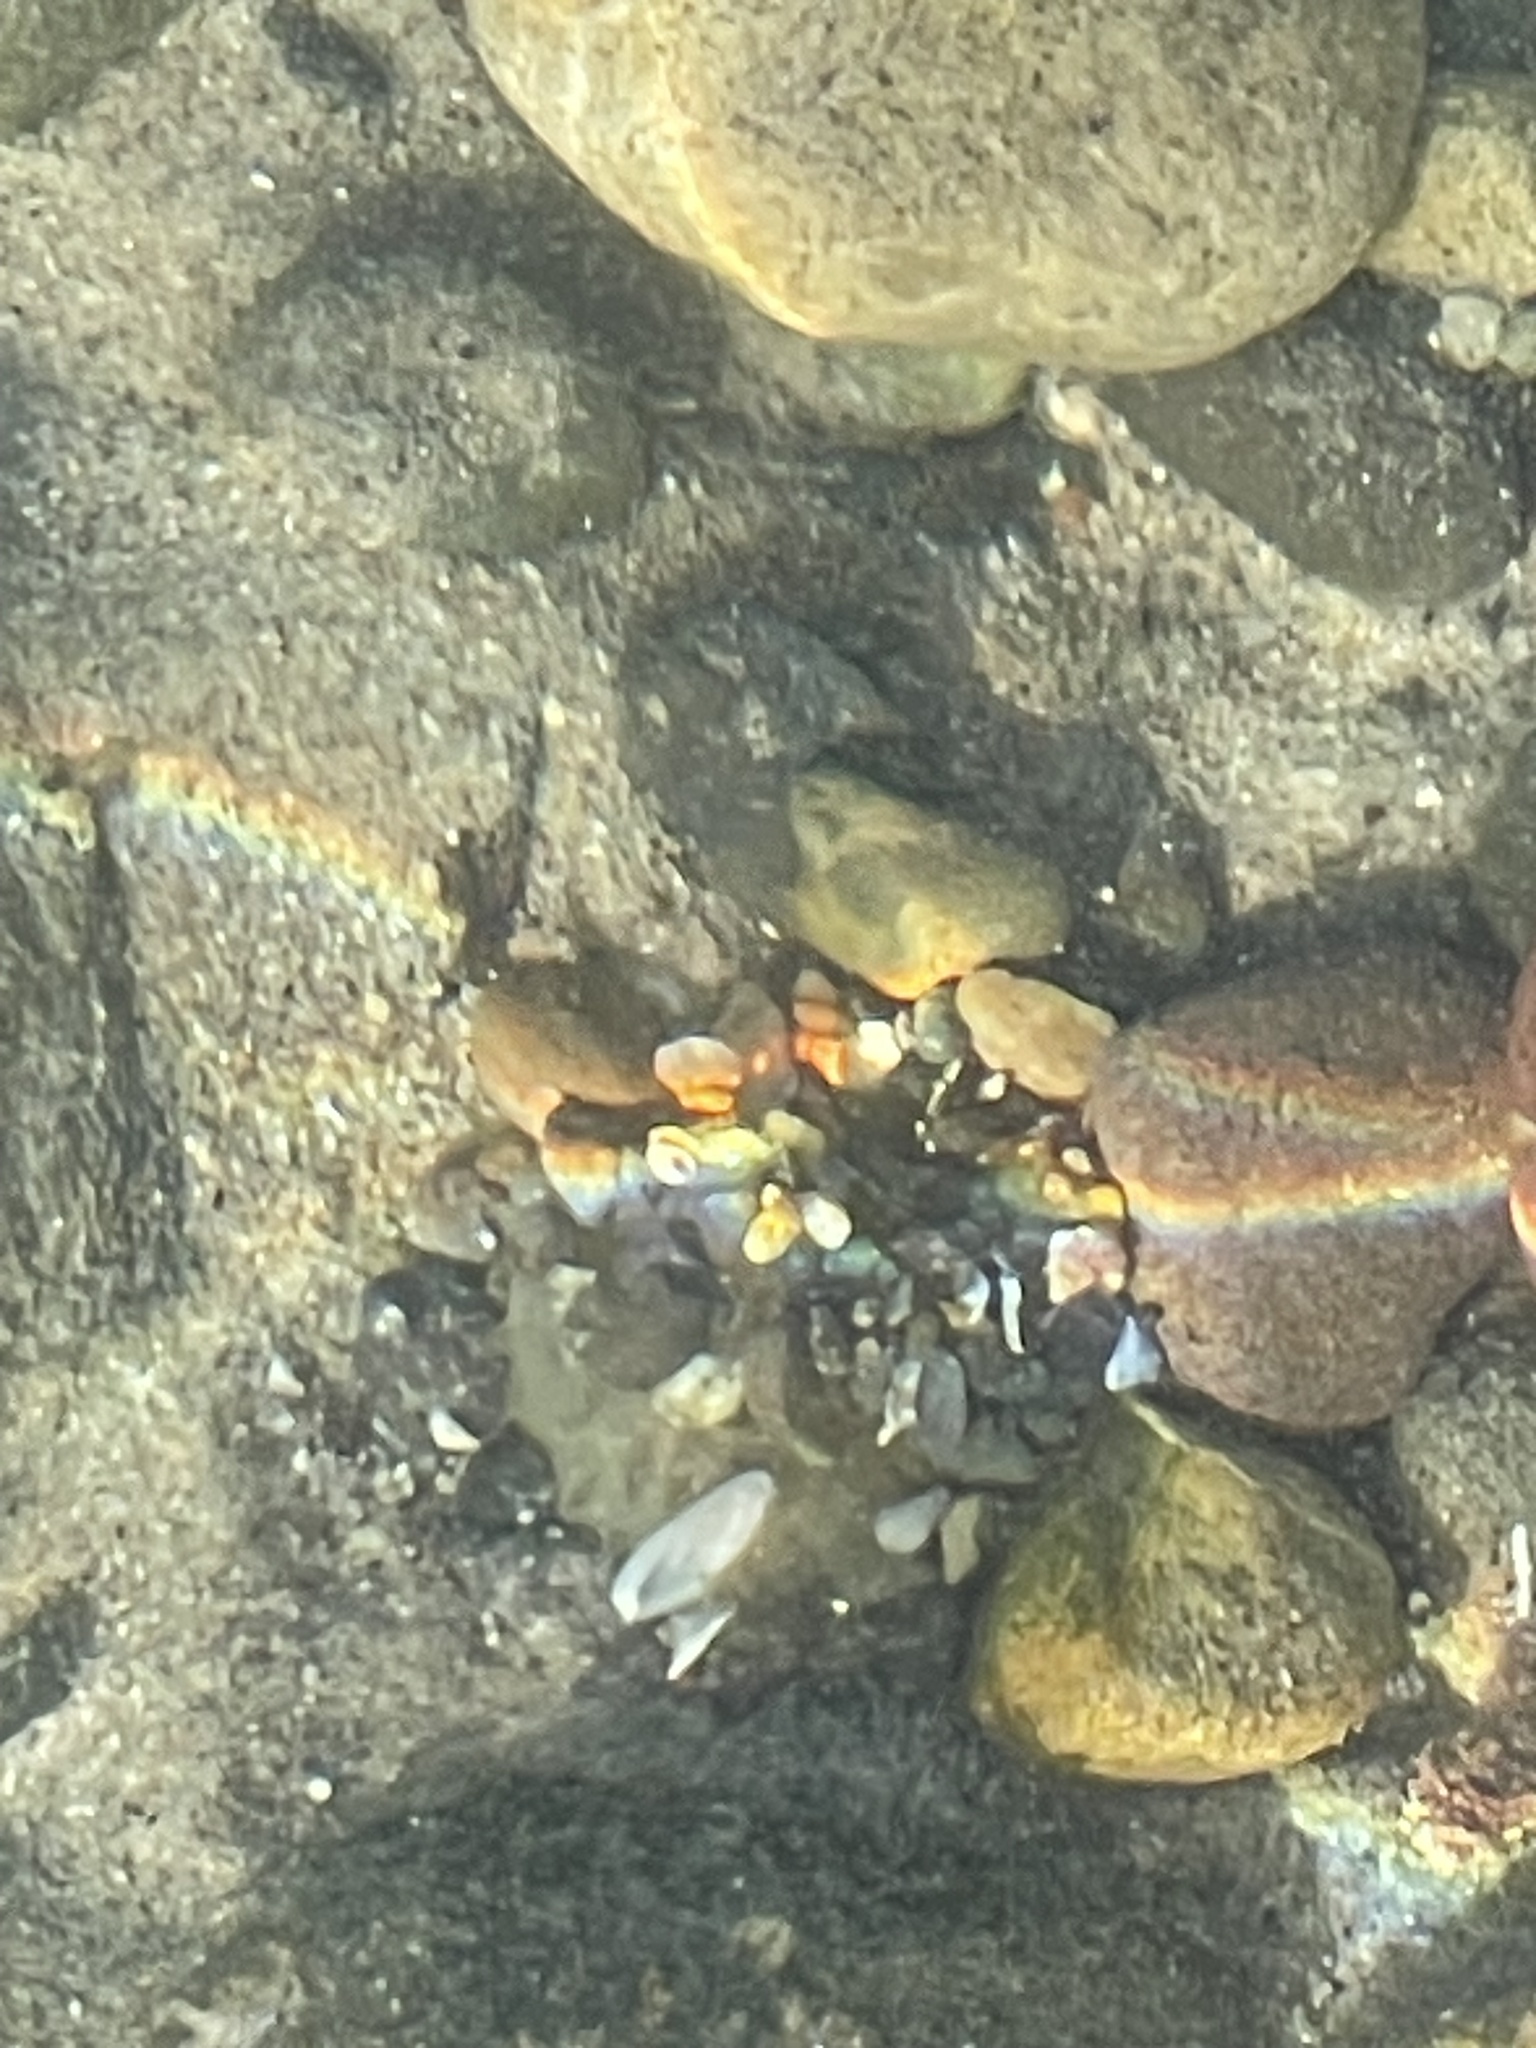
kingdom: Animalia
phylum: Cnidaria
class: Anthozoa
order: Actiniaria
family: Actiniidae
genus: Anthopleura
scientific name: Anthopleura elegantissima
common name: Clonal anemone
